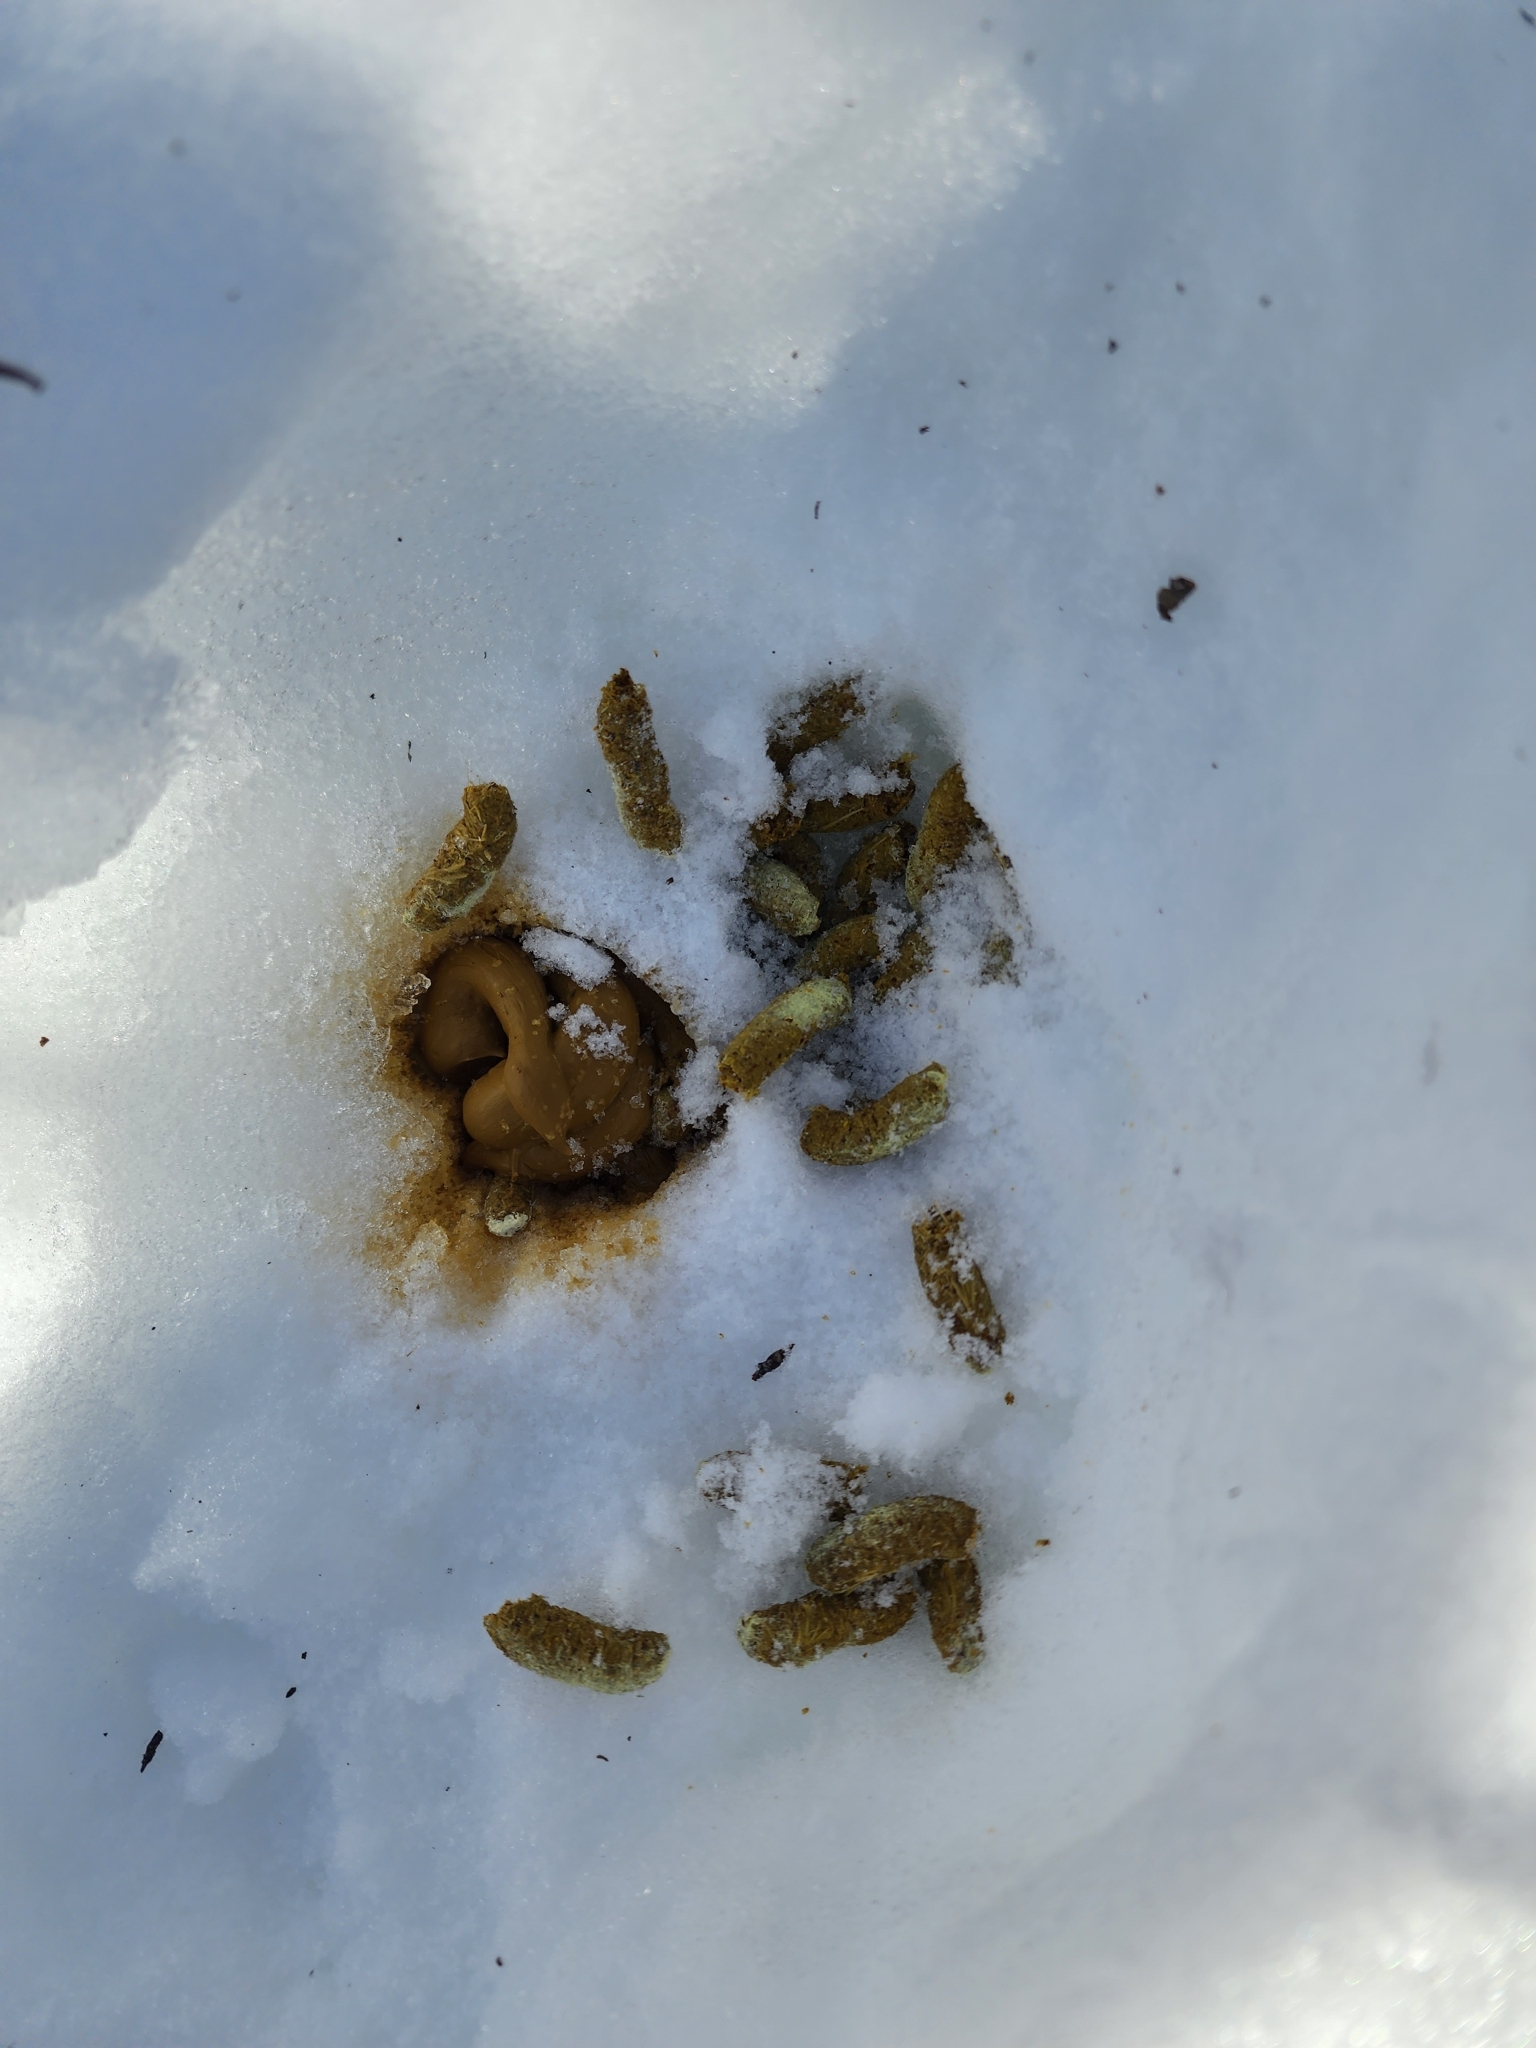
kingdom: Animalia
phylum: Chordata
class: Aves
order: Galliformes
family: Phasianidae
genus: Bonasa
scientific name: Bonasa umbellus
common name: Ruffed grouse
